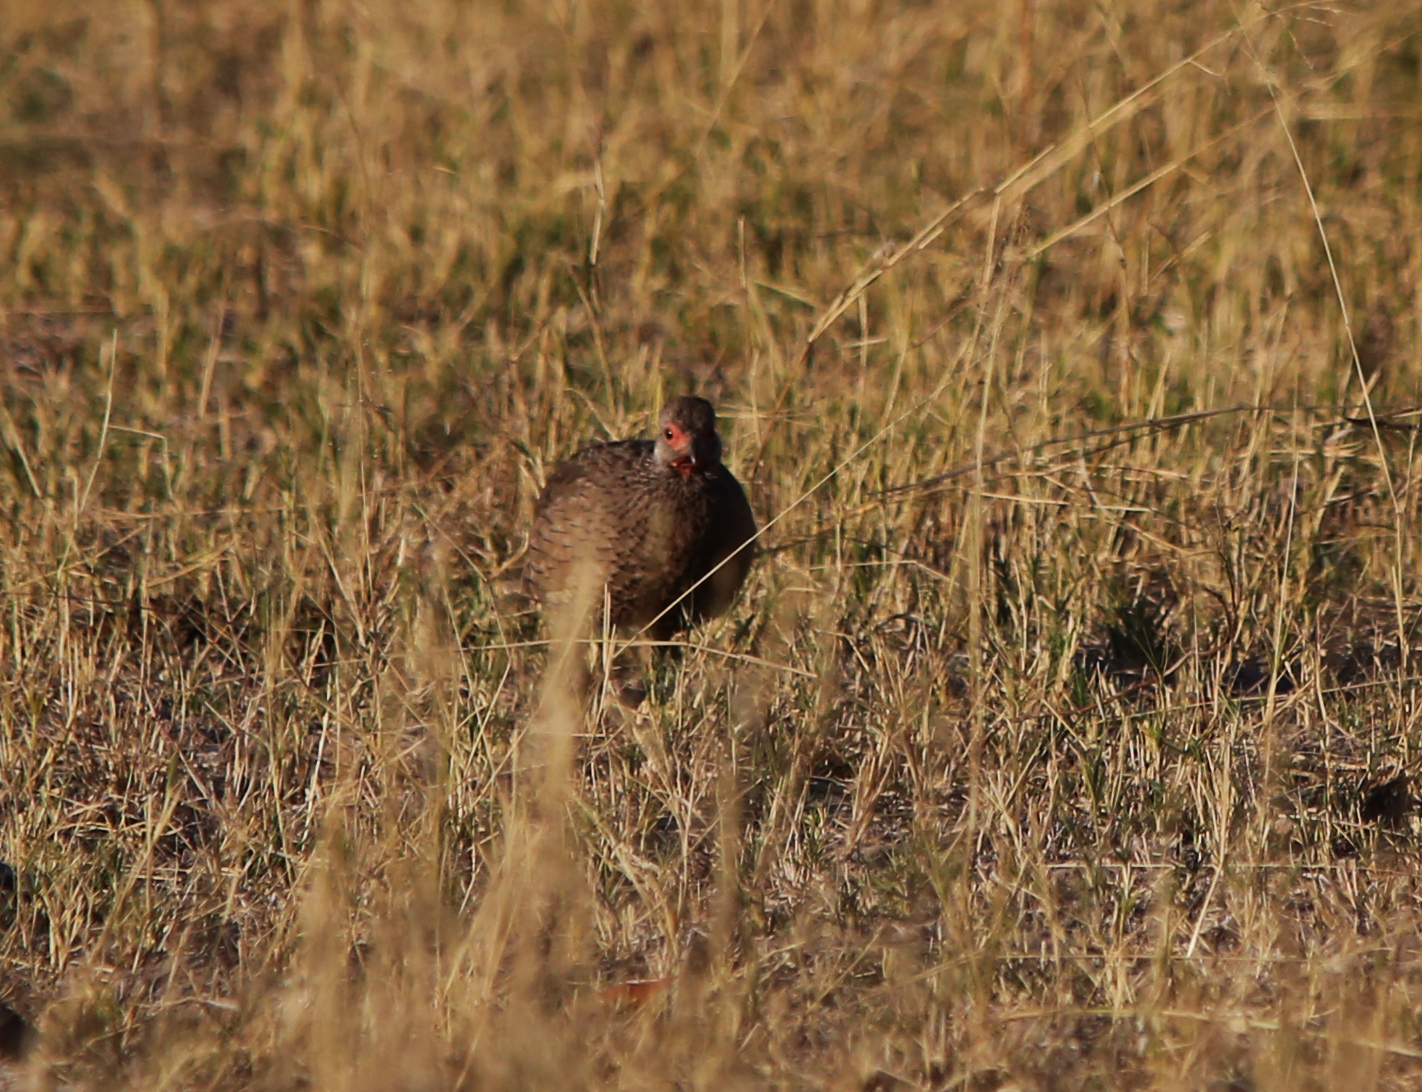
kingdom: Animalia
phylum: Chordata
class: Aves
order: Galliformes
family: Phasianidae
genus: Pternistis
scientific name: Pternistis swainsonii
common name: Swainson's spurfowl
